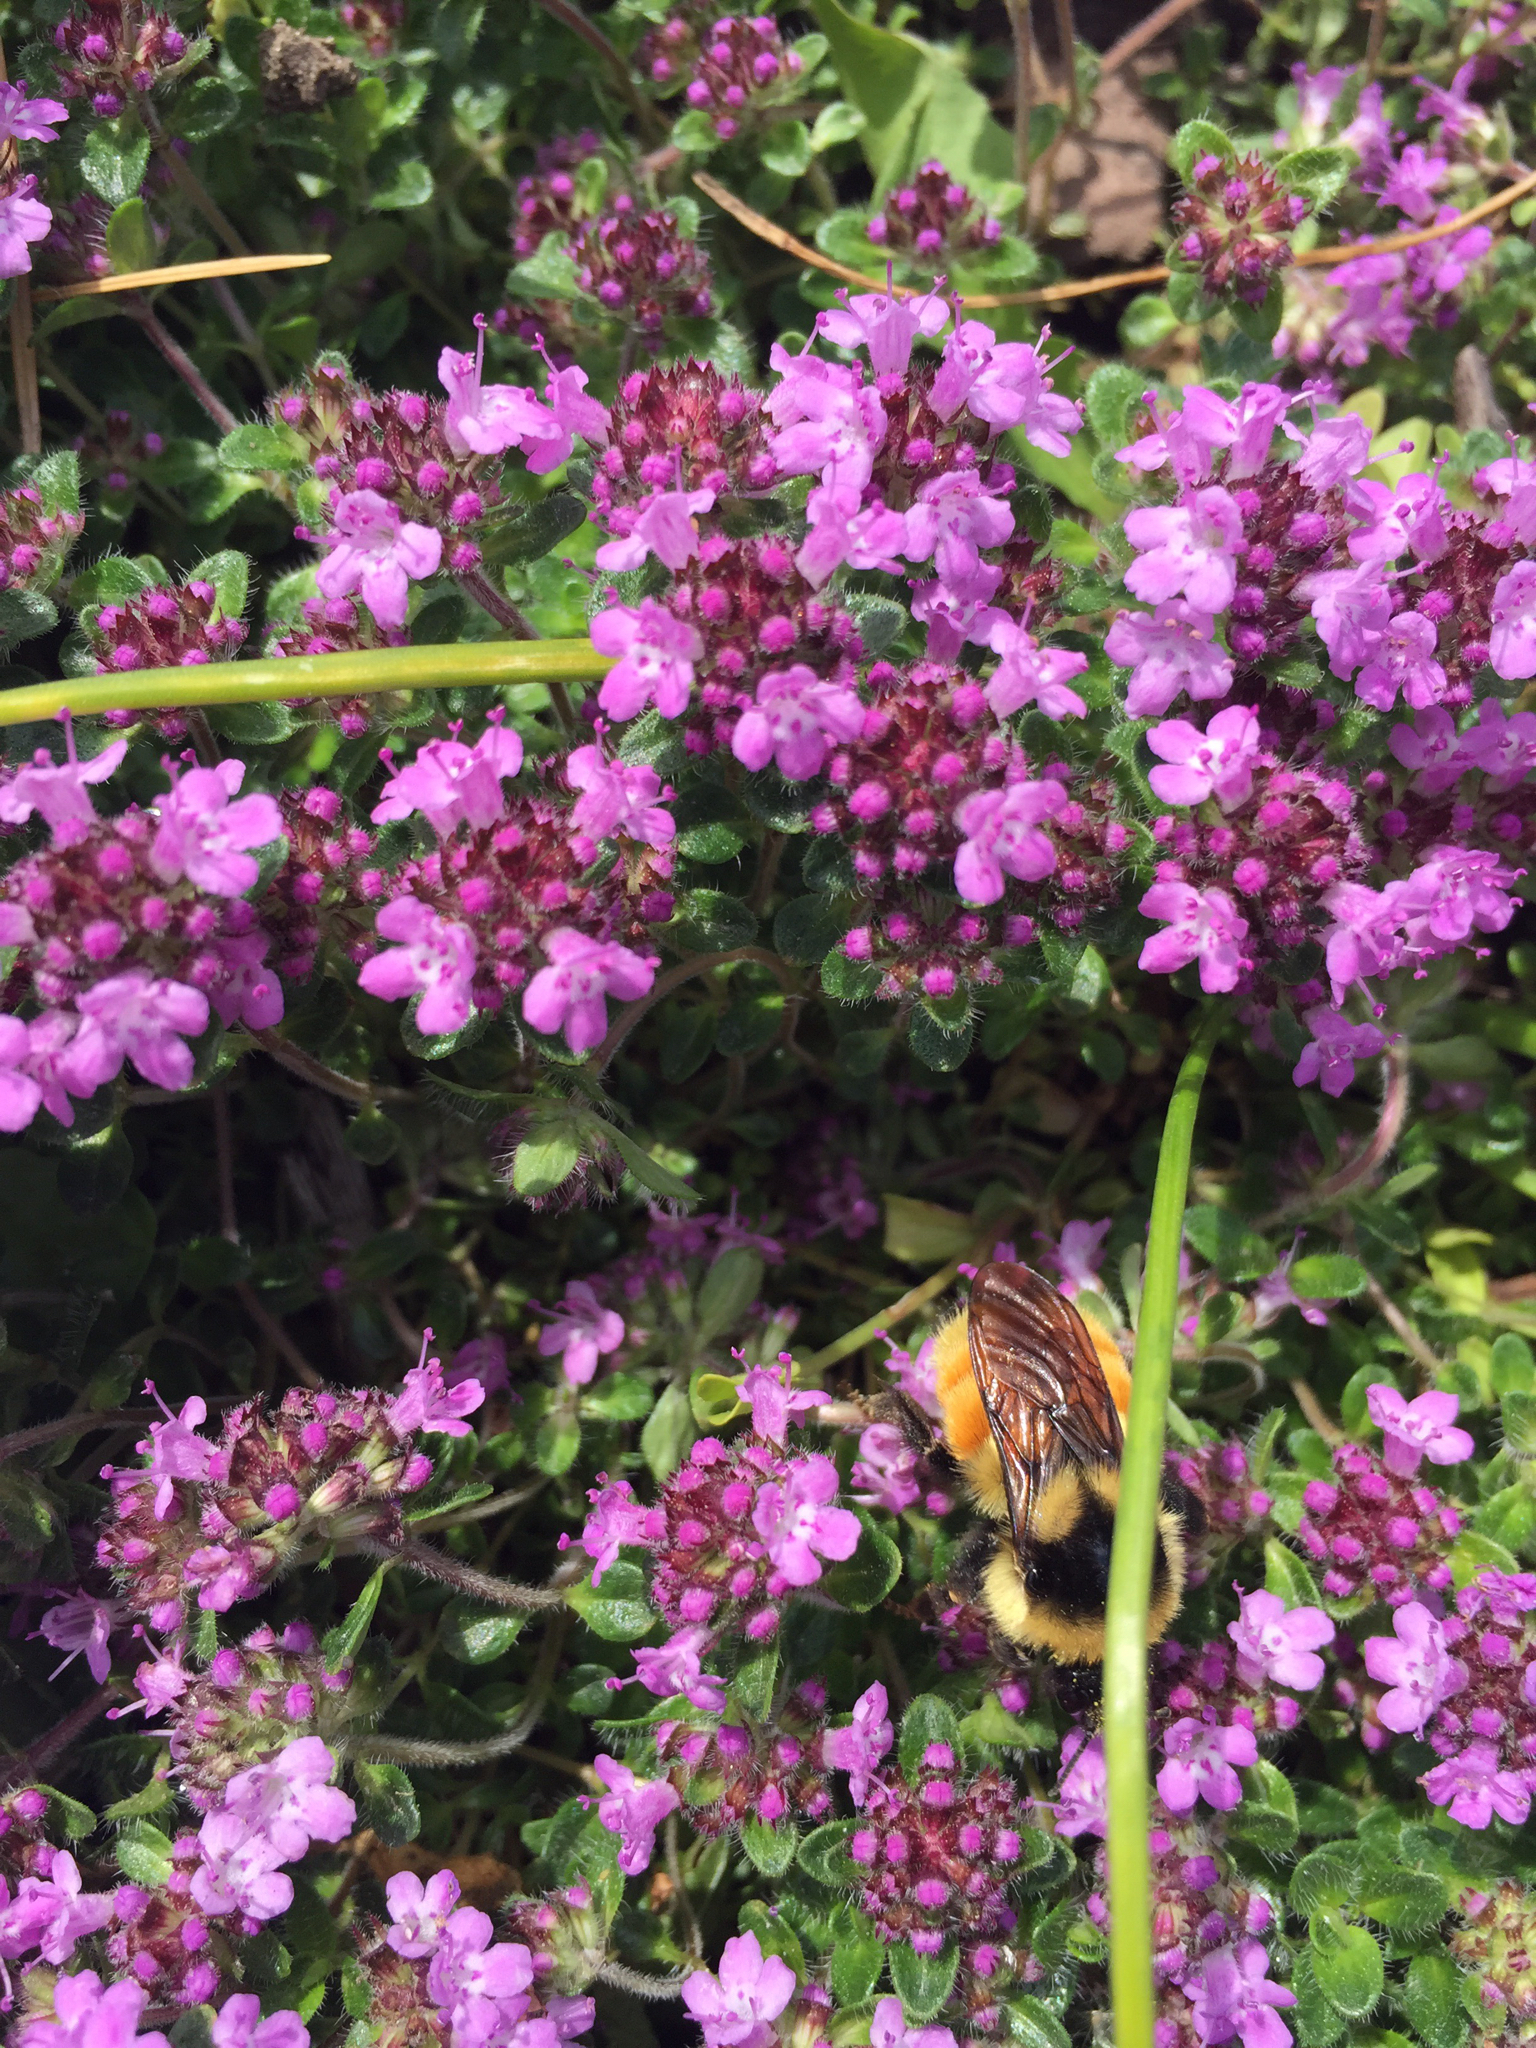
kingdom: Animalia
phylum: Arthropoda
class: Insecta
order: Hymenoptera
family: Apidae
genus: Bombus
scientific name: Bombus ternarius
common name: Tri-colored bumble bee
